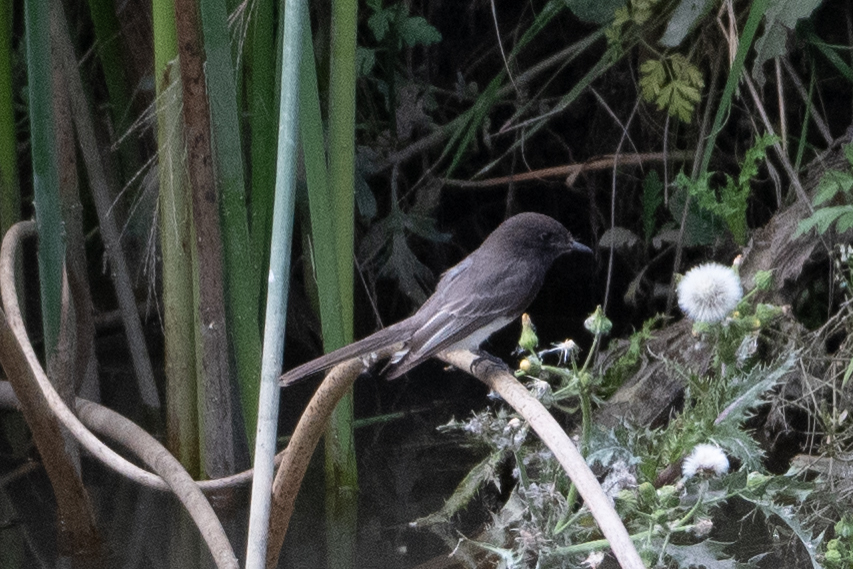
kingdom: Animalia
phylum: Chordata
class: Aves
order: Passeriformes
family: Tyrannidae
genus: Sayornis
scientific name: Sayornis nigricans
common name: Black phoebe
